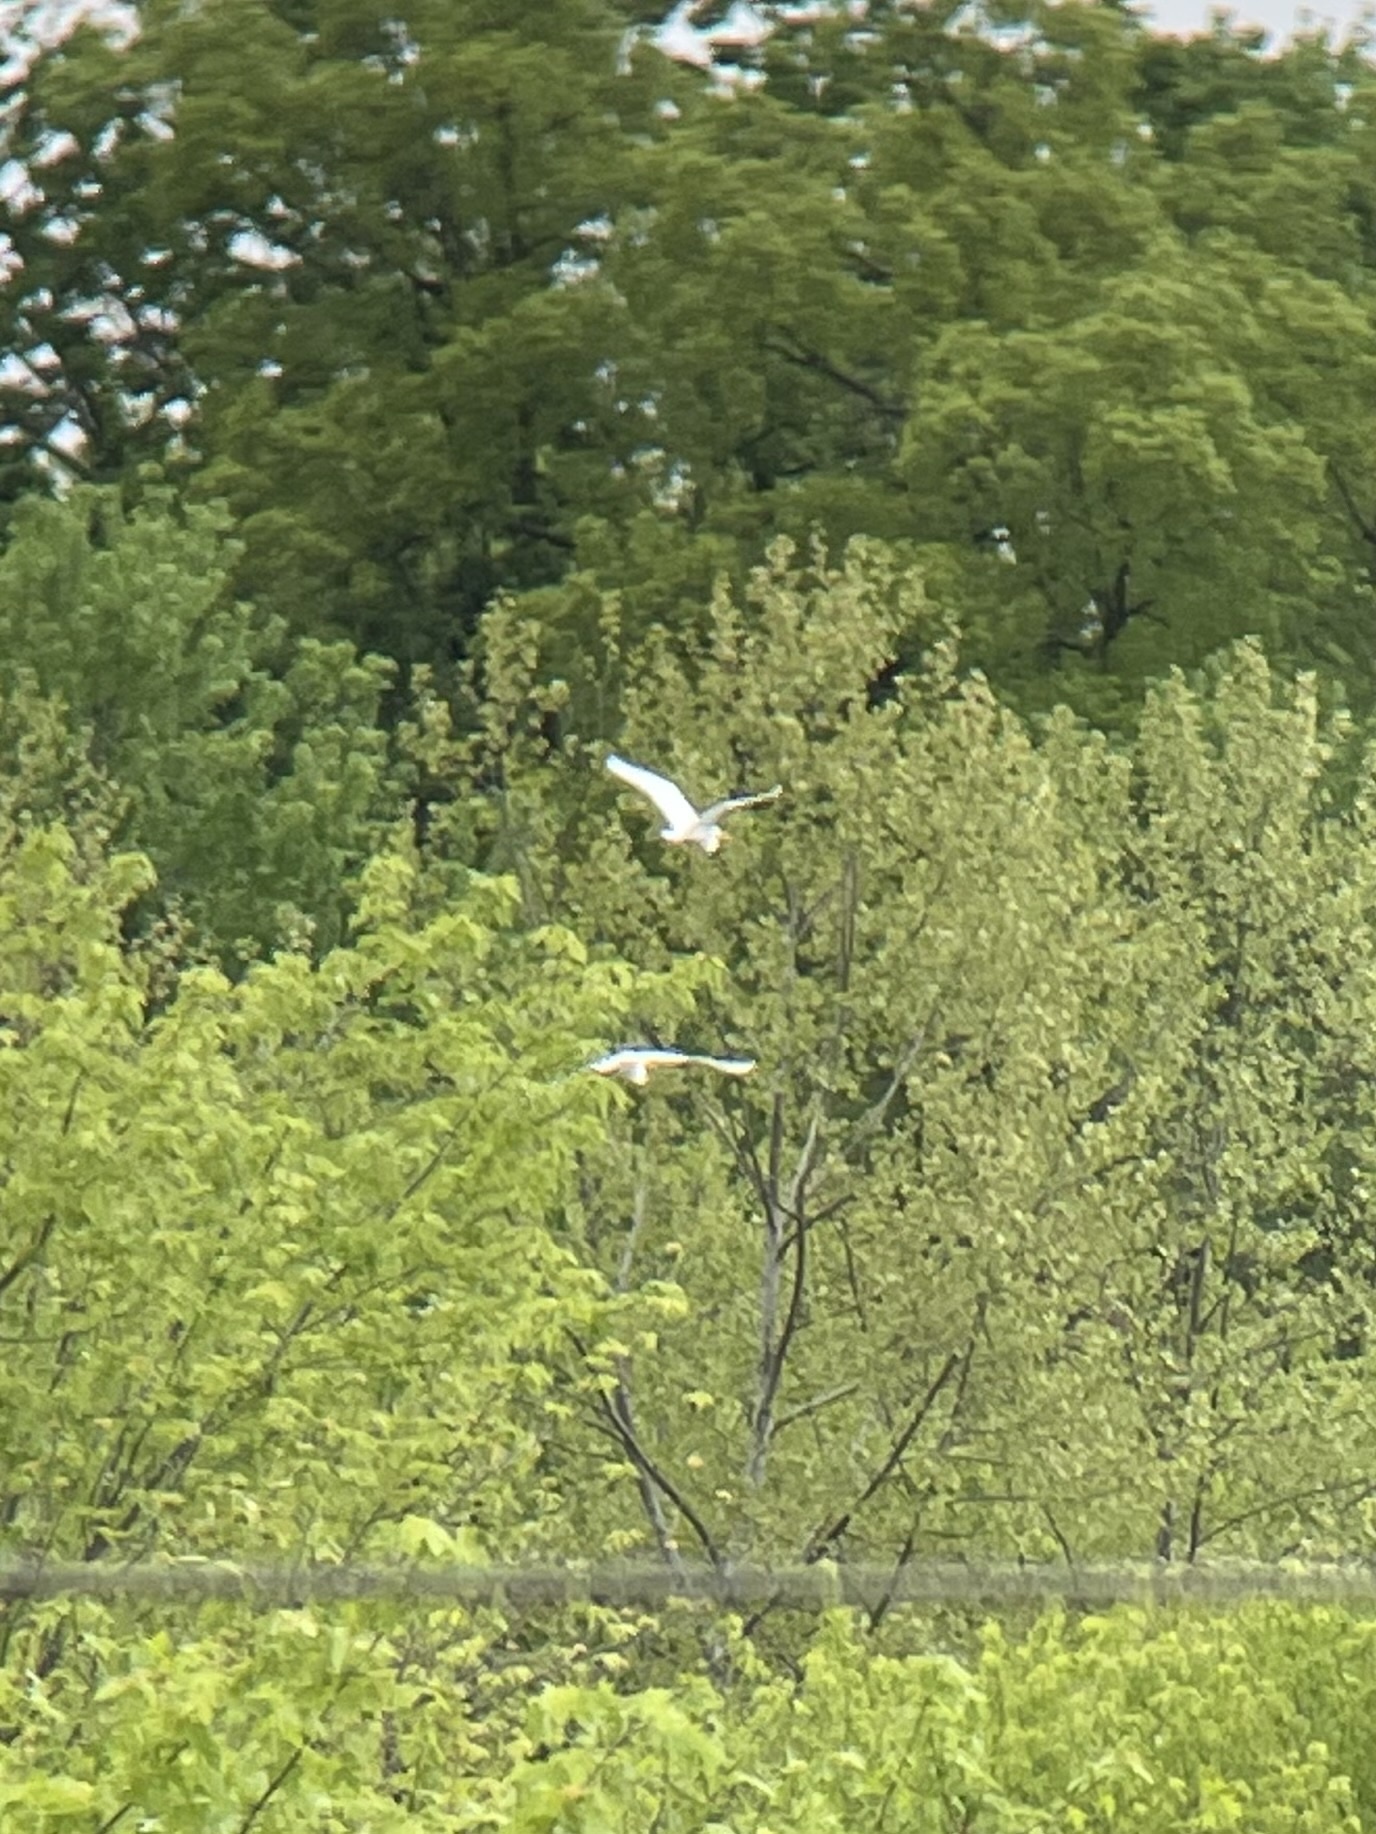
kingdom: Animalia
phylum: Chordata
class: Aves
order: Pelecaniformes
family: Ardeidae
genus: Ardea
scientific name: Ardea alba
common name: Great egret
